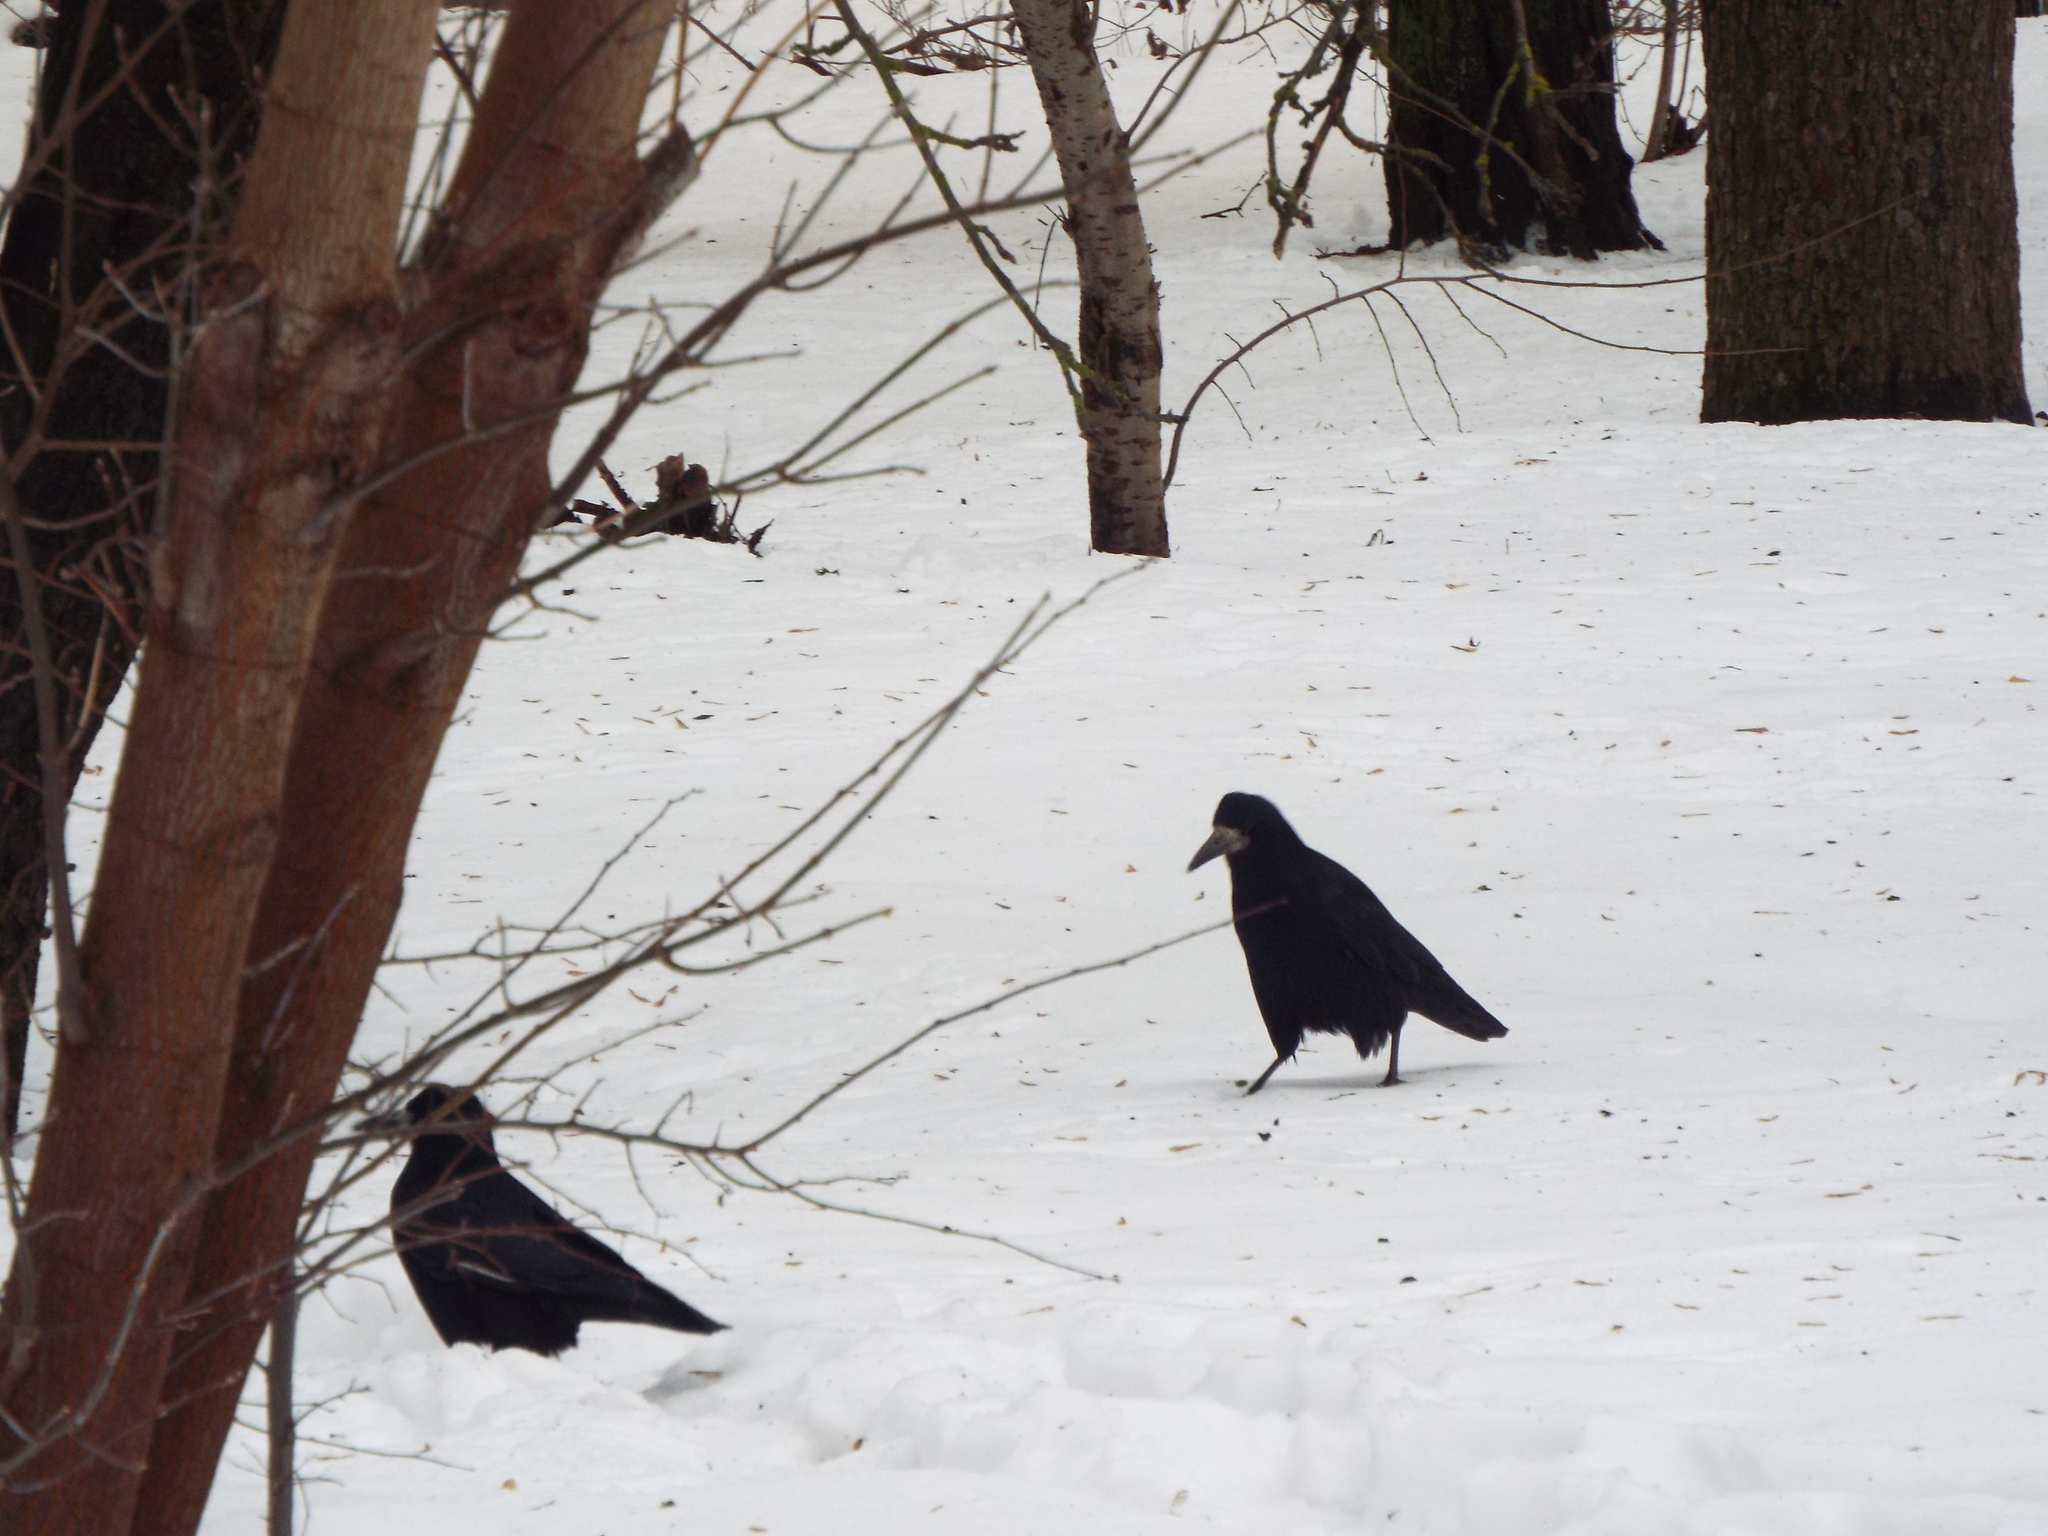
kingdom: Animalia
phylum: Chordata
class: Aves
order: Passeriformes
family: Corvidae
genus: Corvus
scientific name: Corvus frugilegus
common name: Rook
